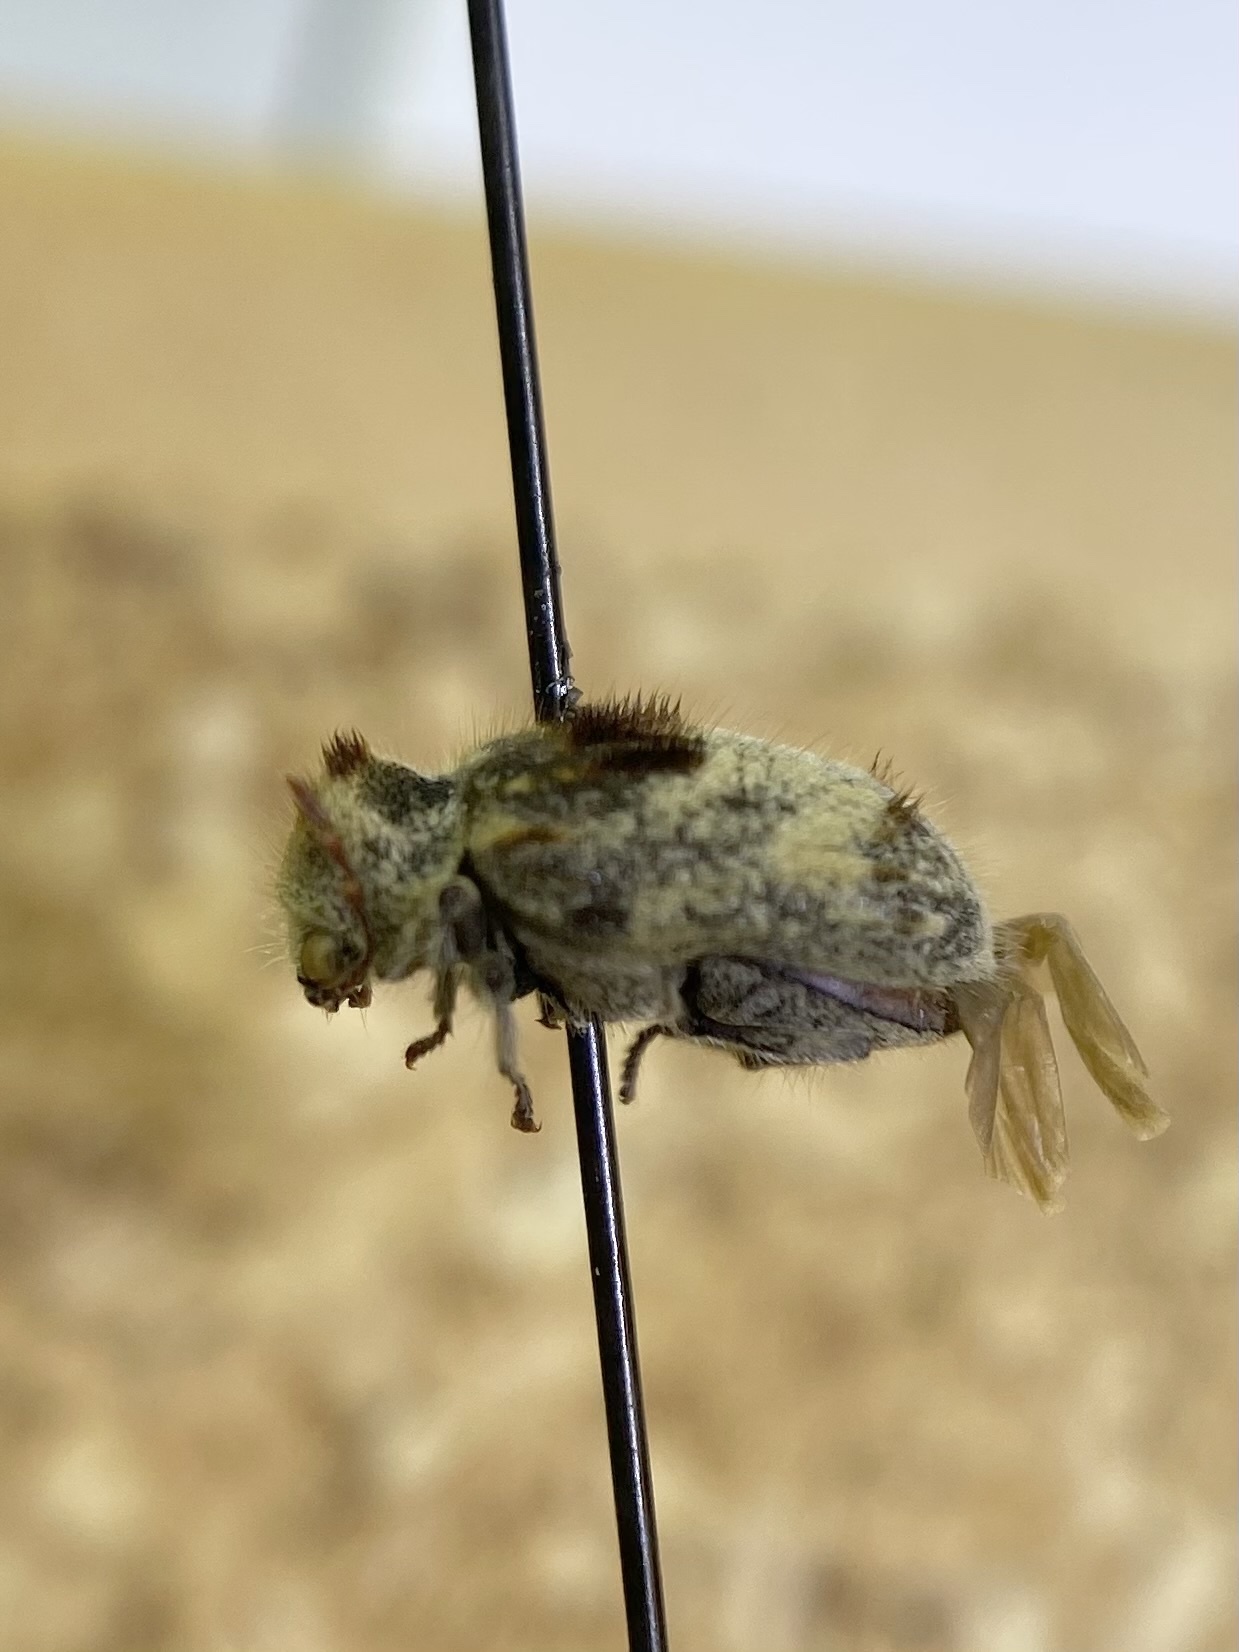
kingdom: Animalia
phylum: Arthropoda
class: Insecta
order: Coleoptera
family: Anobiidae
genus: Trichodesma
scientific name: Trichodesma gibbosa
